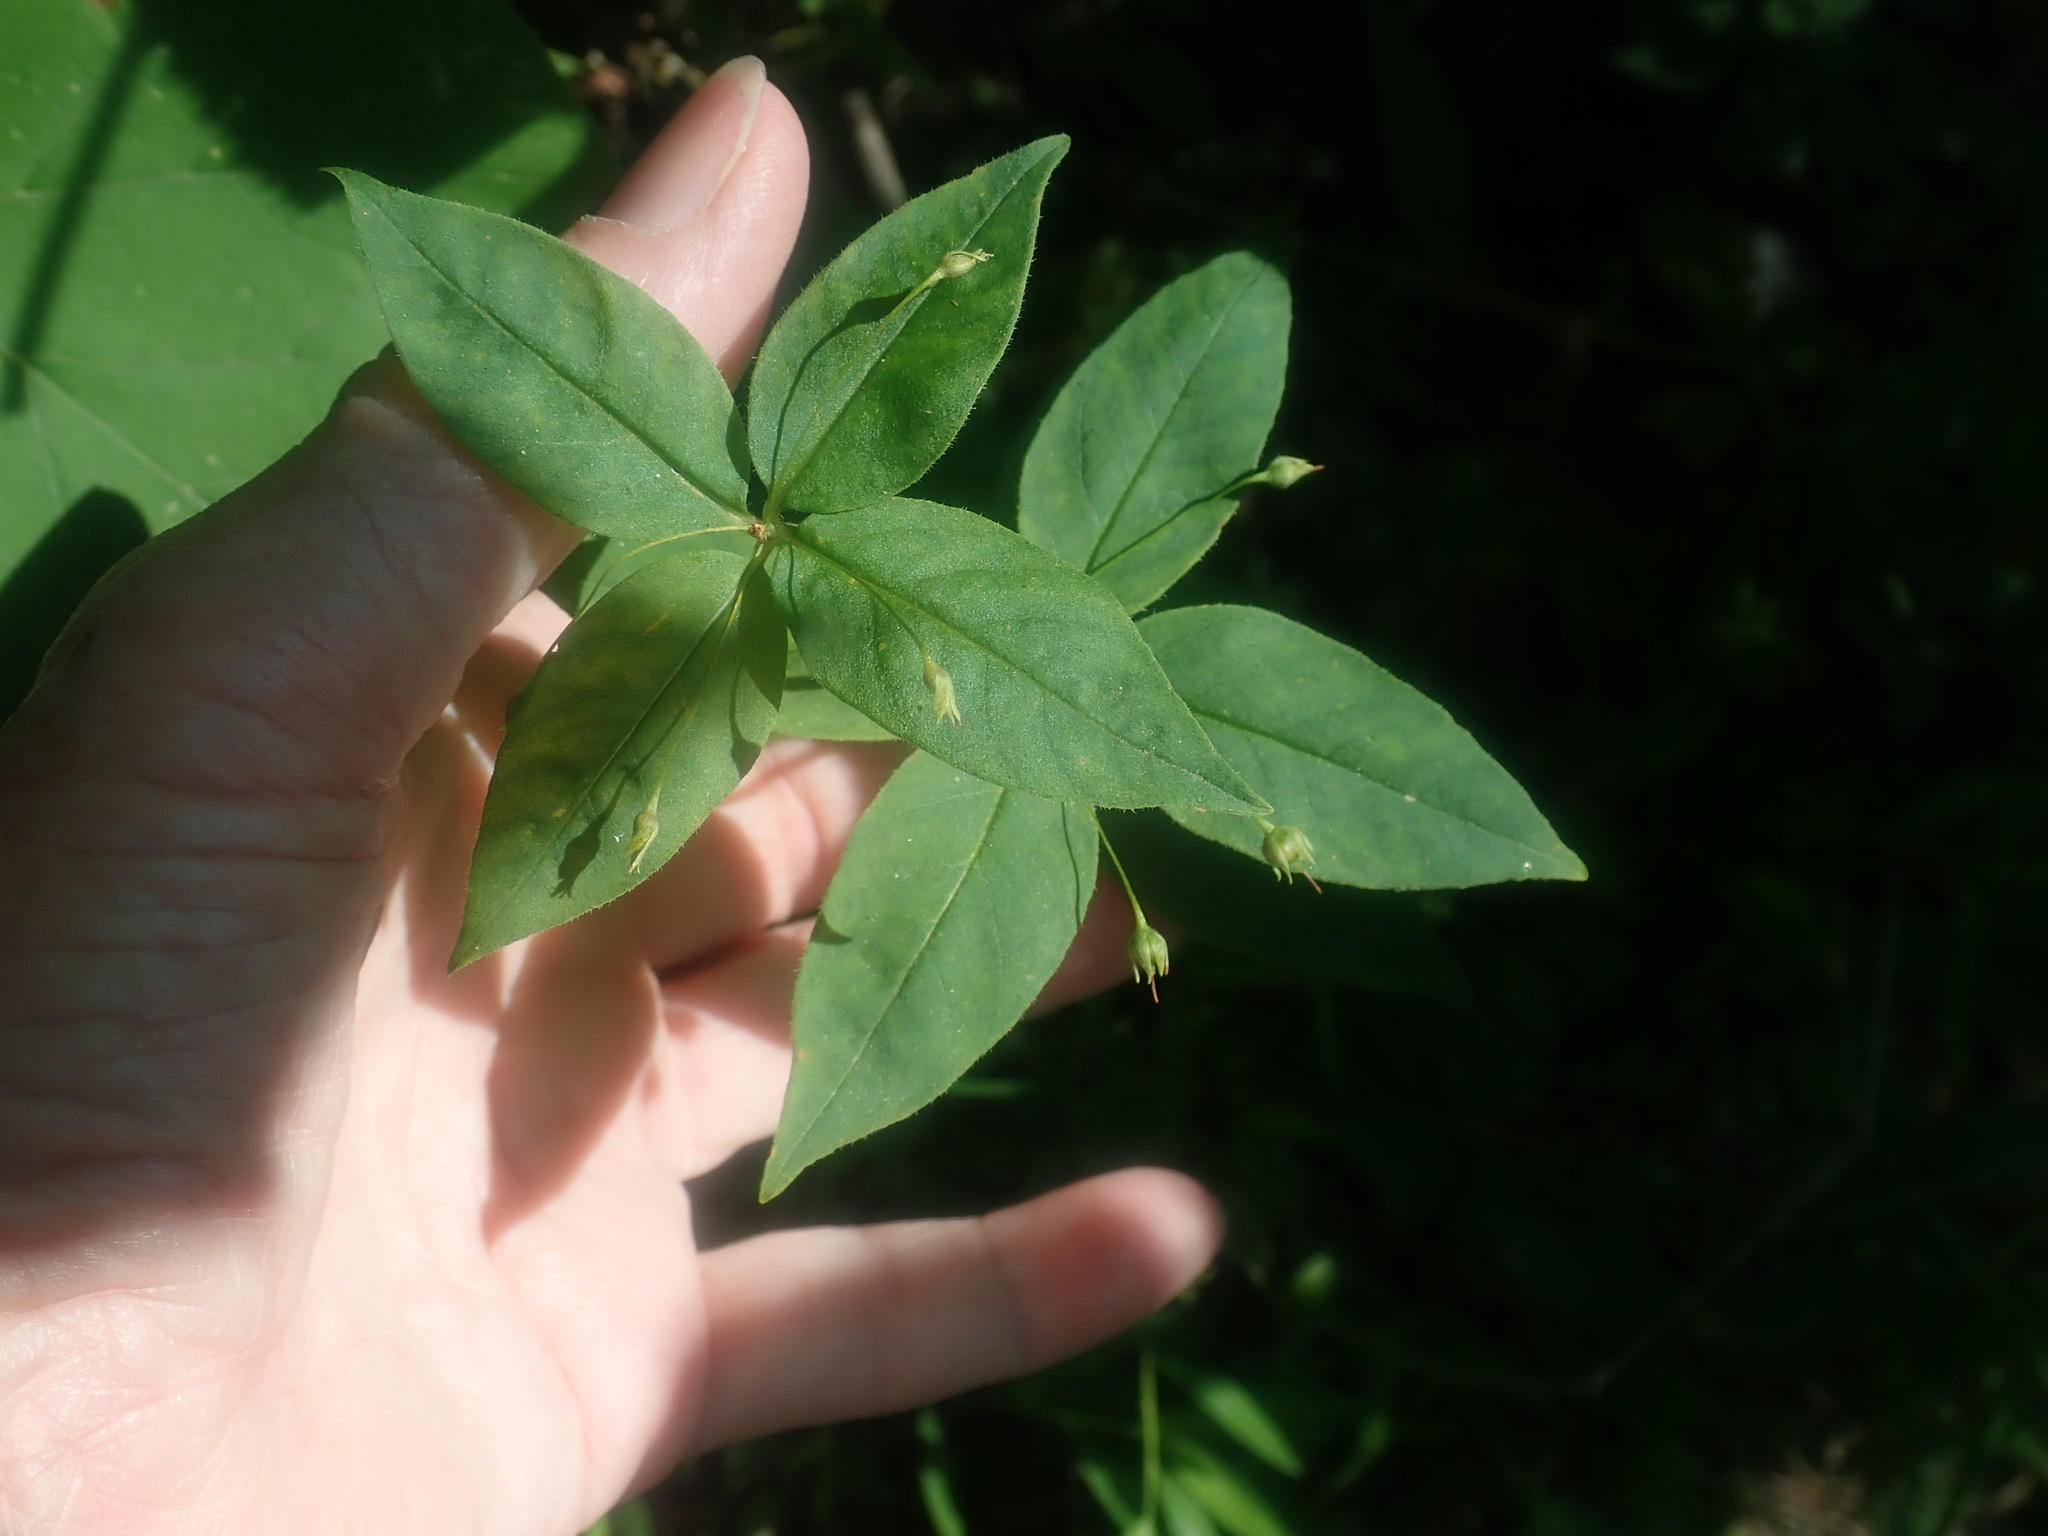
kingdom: Plantae
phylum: Tracheophyta
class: Magnoliopsida
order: Ericales
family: Primulaceae
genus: Lysimachia
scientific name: Lysimachia quadrifolia
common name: Whorled loosestrife
